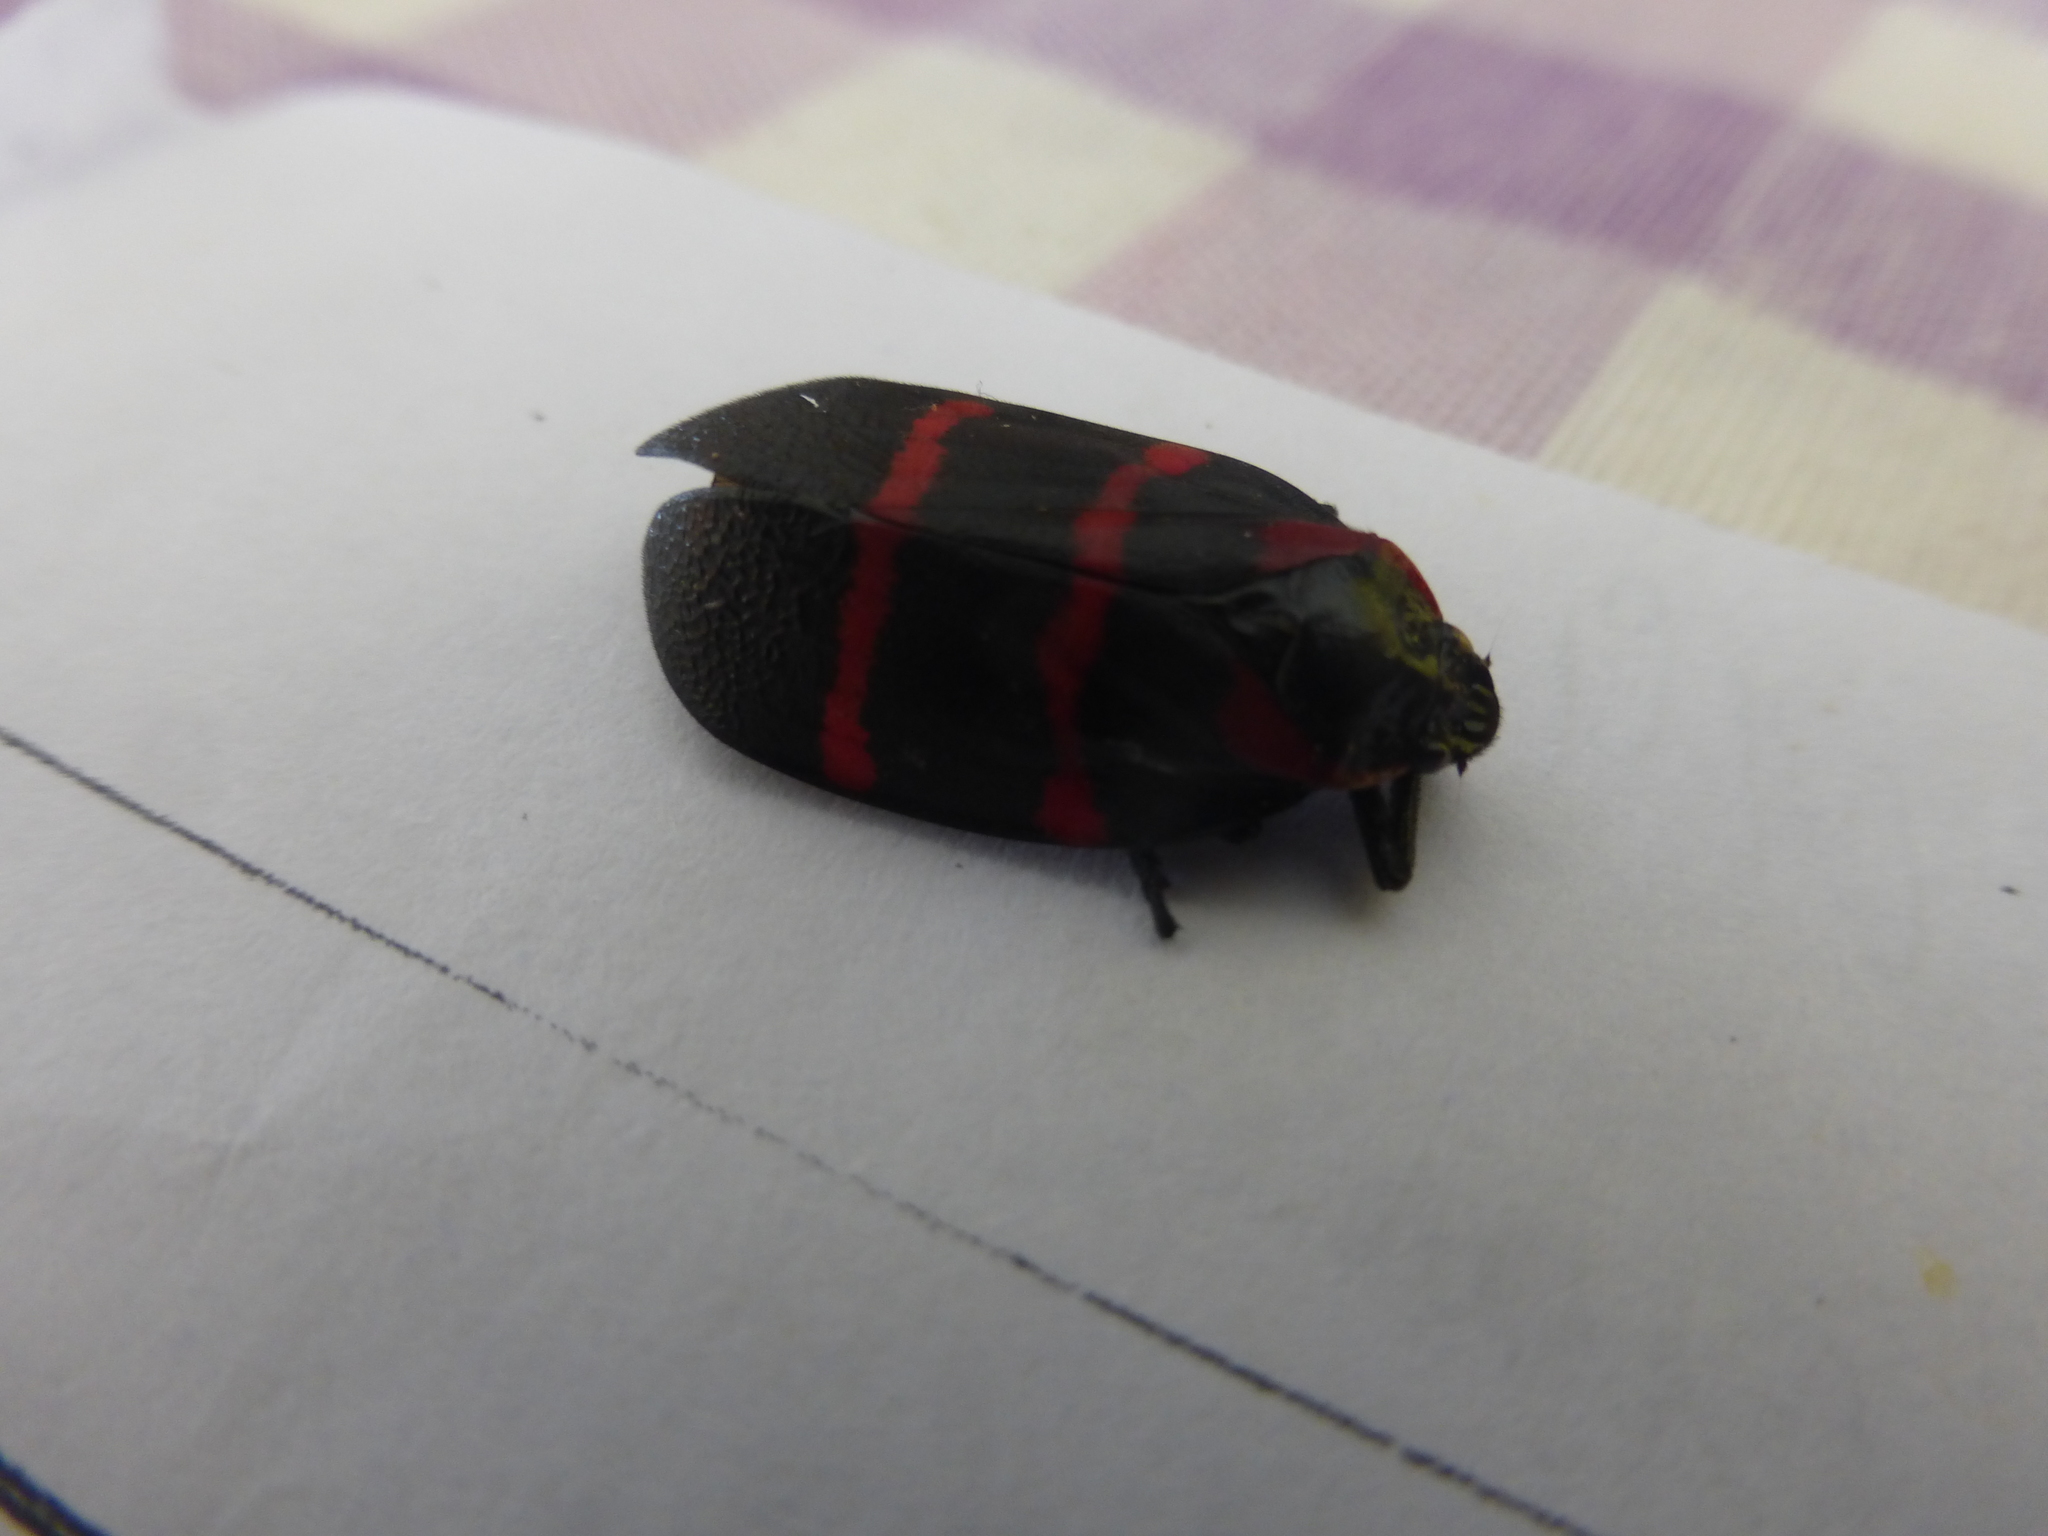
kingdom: Animalia
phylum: Arthropoda
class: Insecta
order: Hemiptera
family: Cercopidae
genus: Huaina
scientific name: Huaina inca
